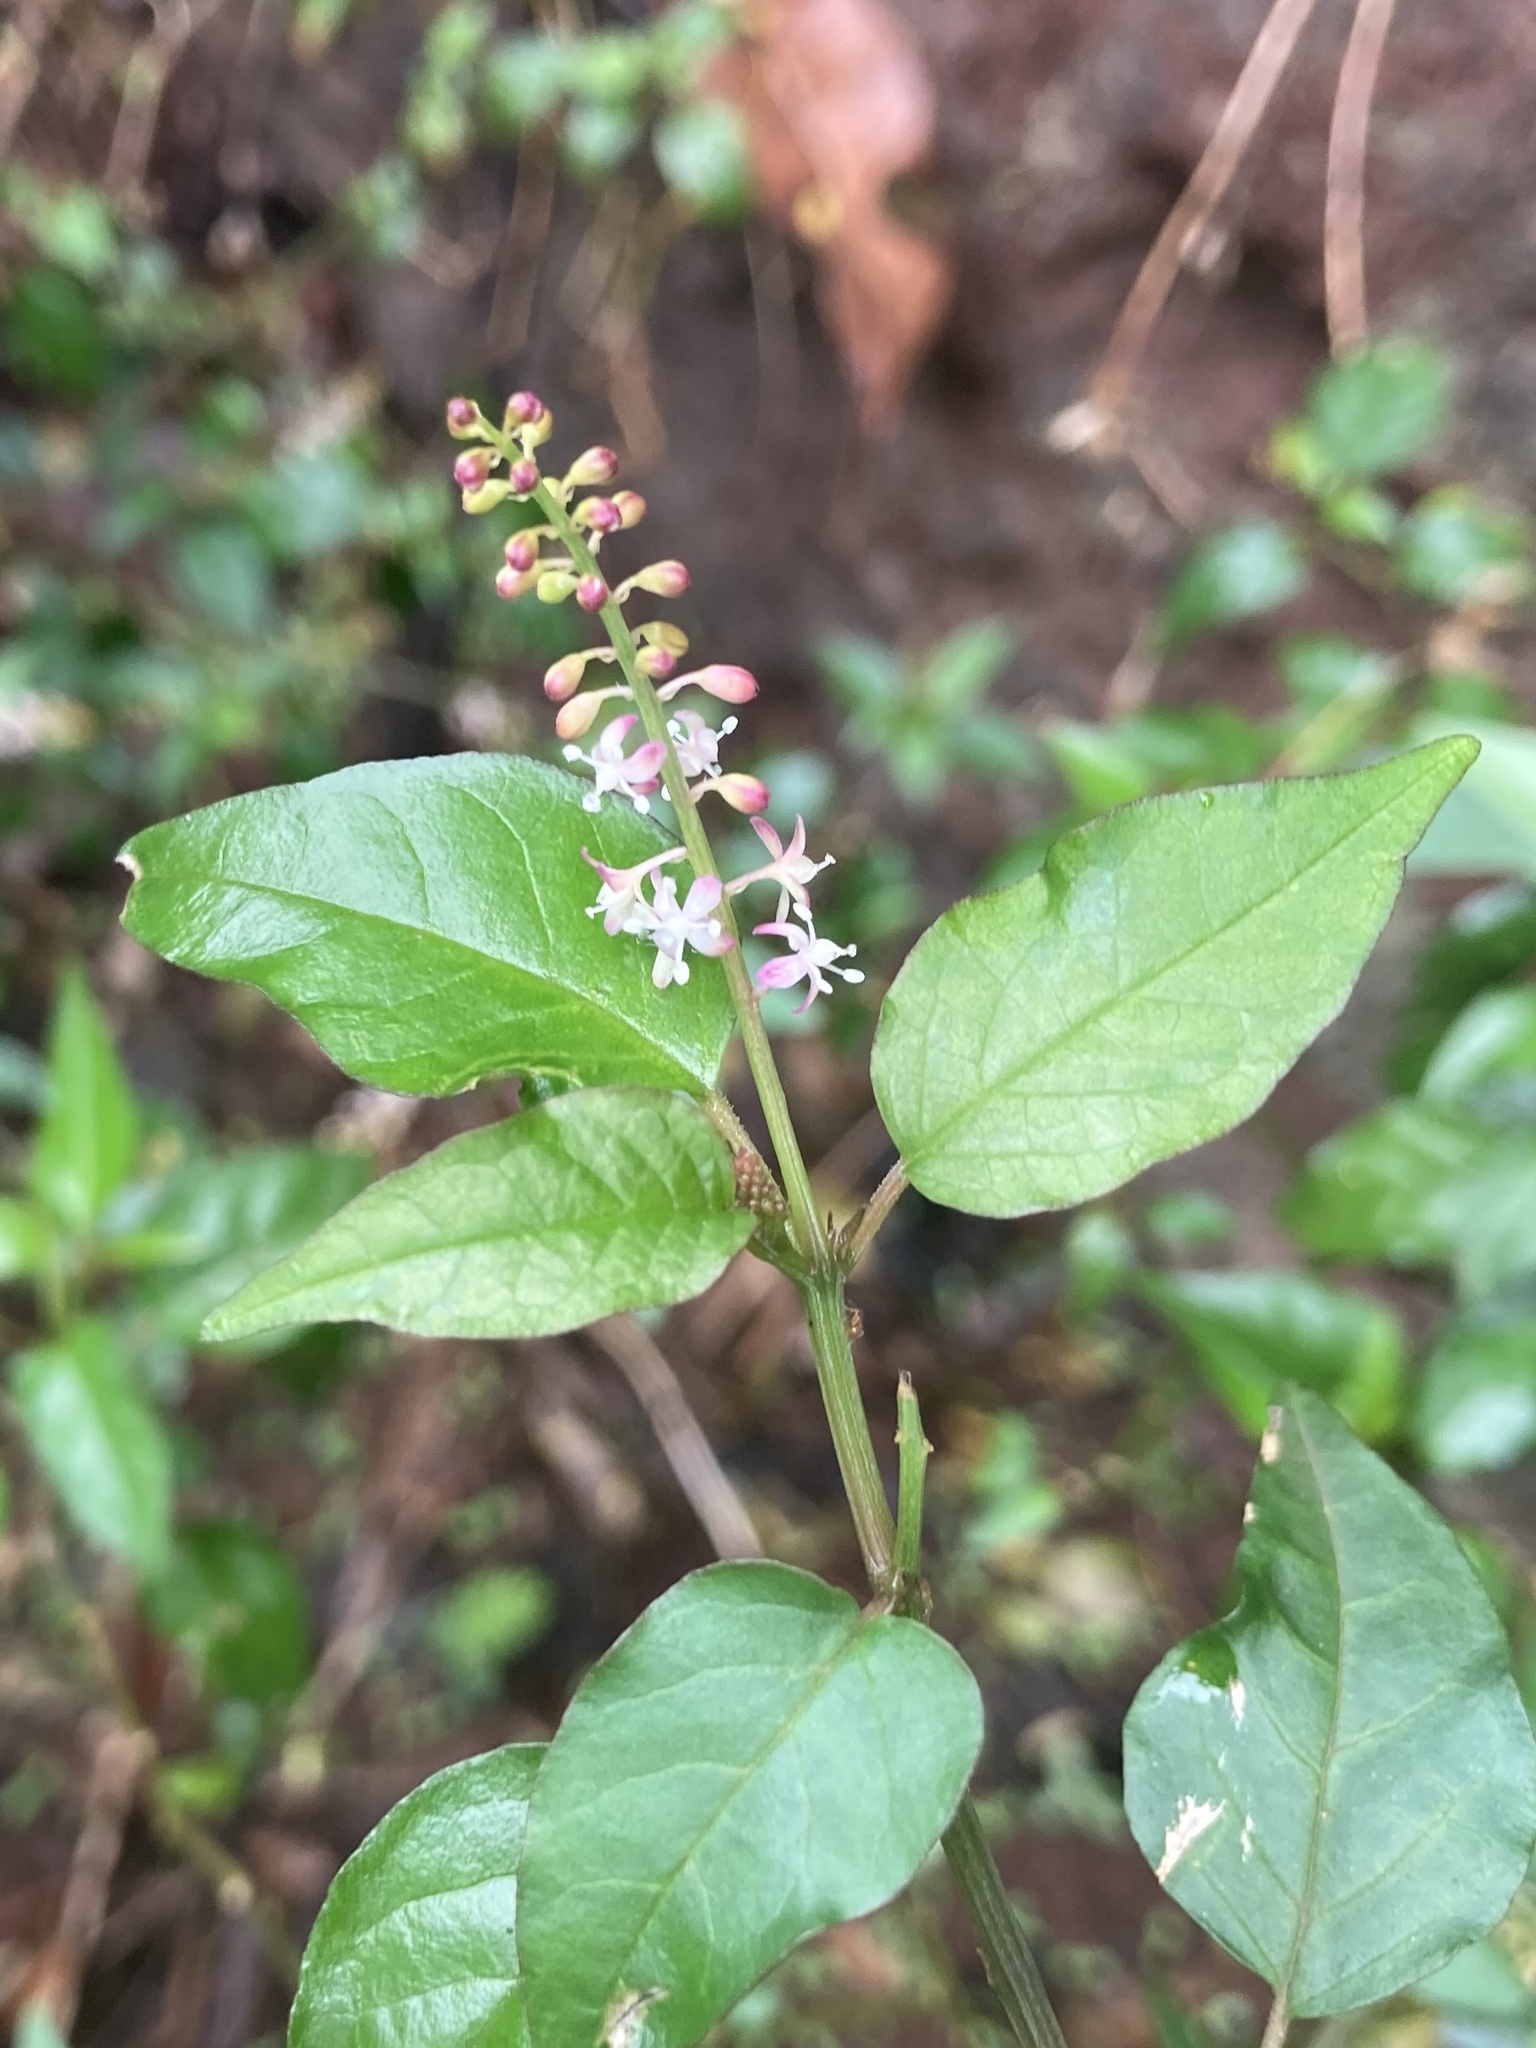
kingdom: Plantae
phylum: Tracheophyta
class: Magnoliopsida
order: Caryophyllales
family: Phytolaccaceae
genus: Rivina
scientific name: Rivina humilis
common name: Rougeplant
